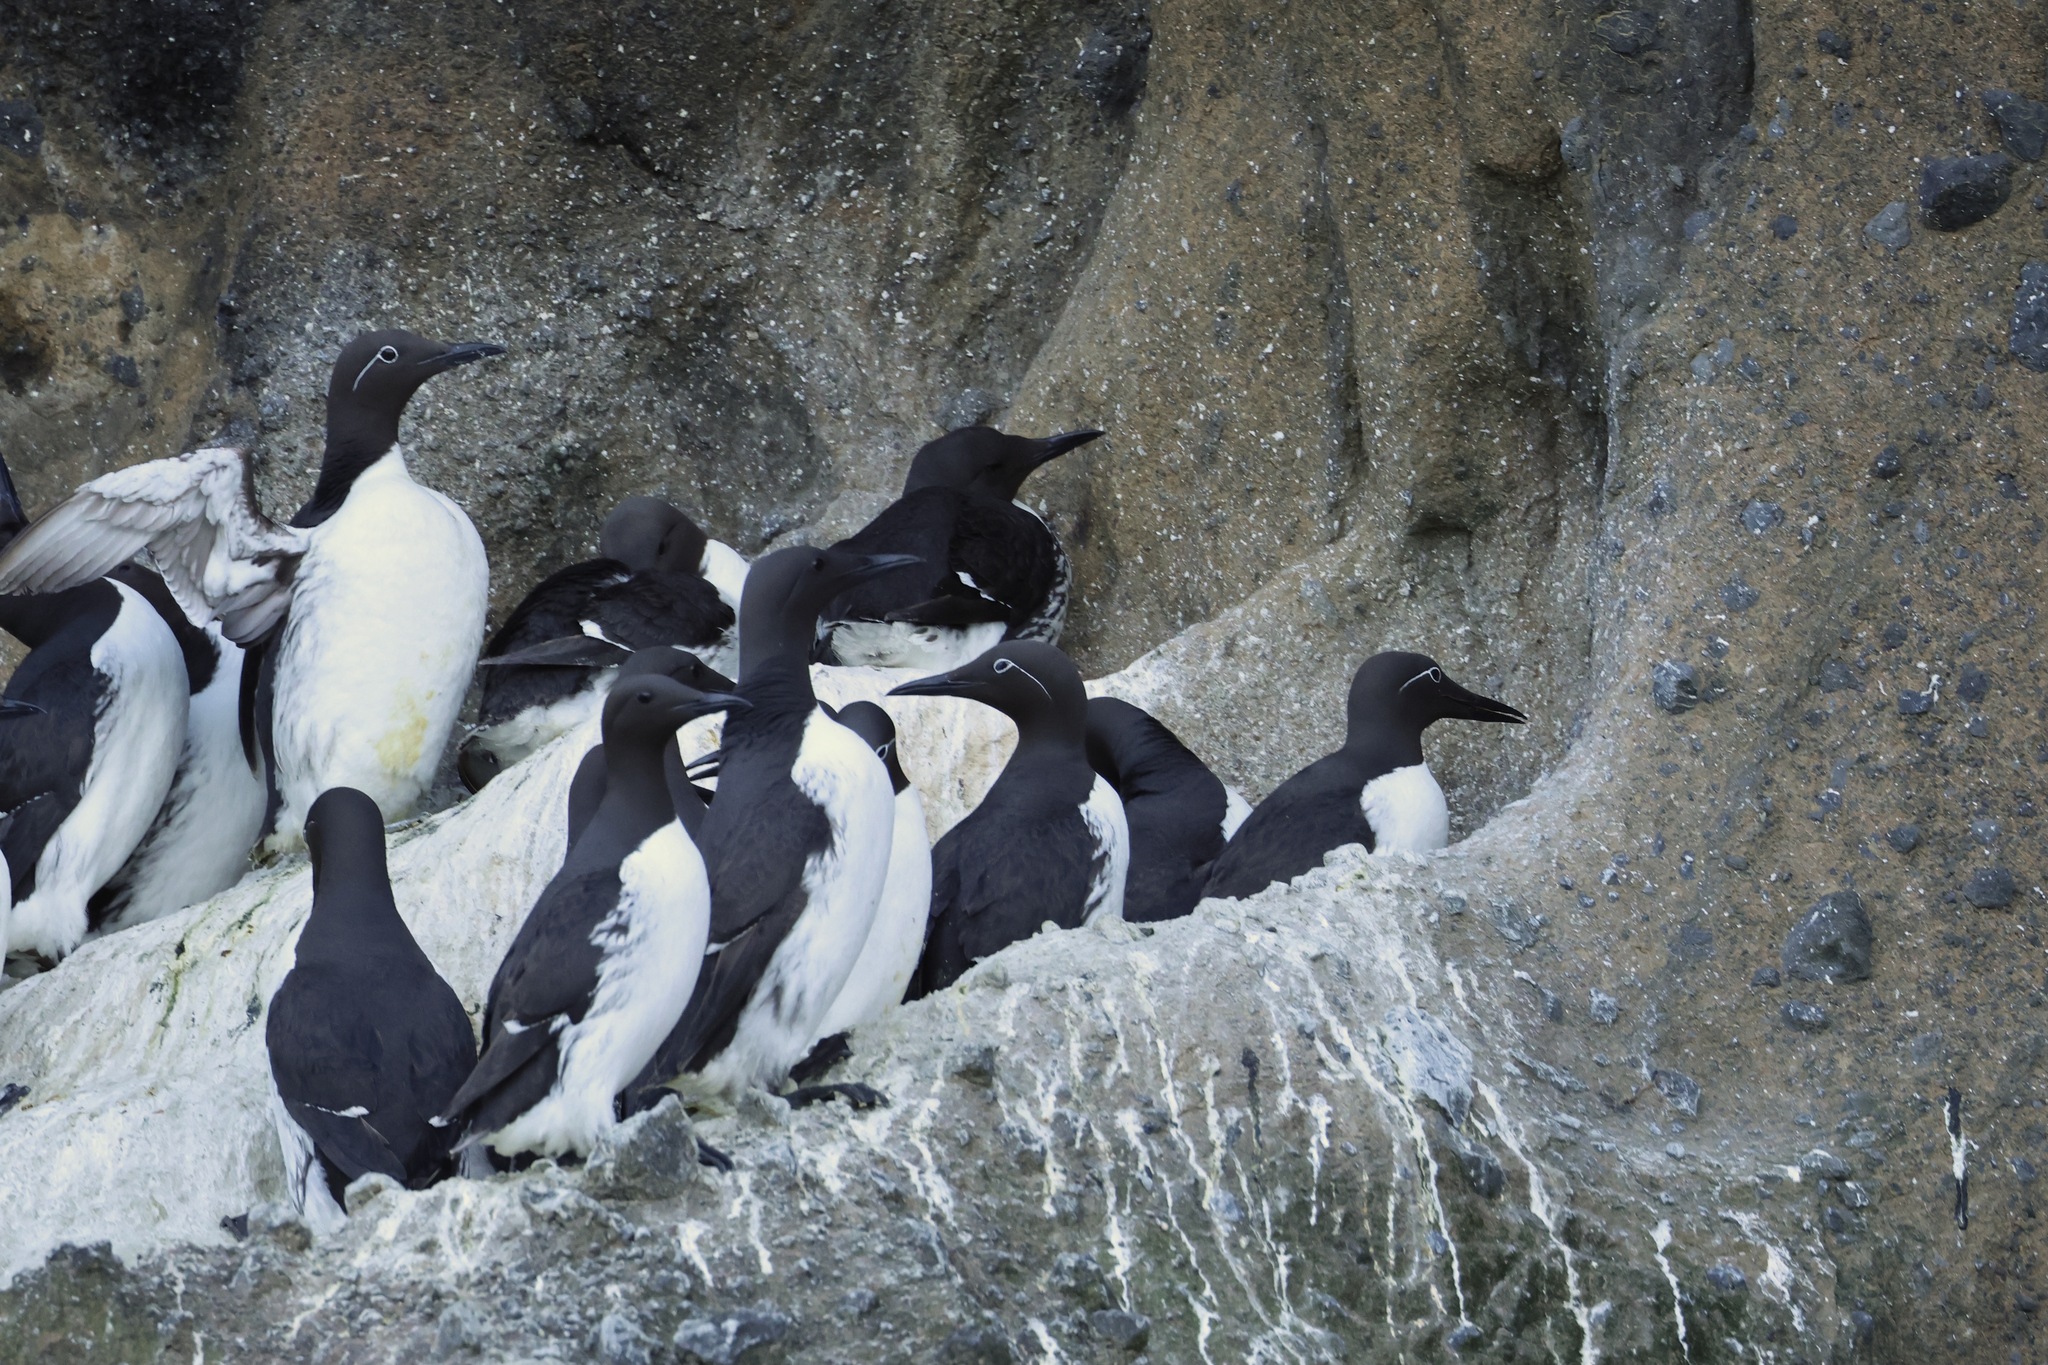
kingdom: Animalia
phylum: Chordata
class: Aves
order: Charadriiformes
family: Alcidae
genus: Uria
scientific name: Uria aalge
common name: Common murre
